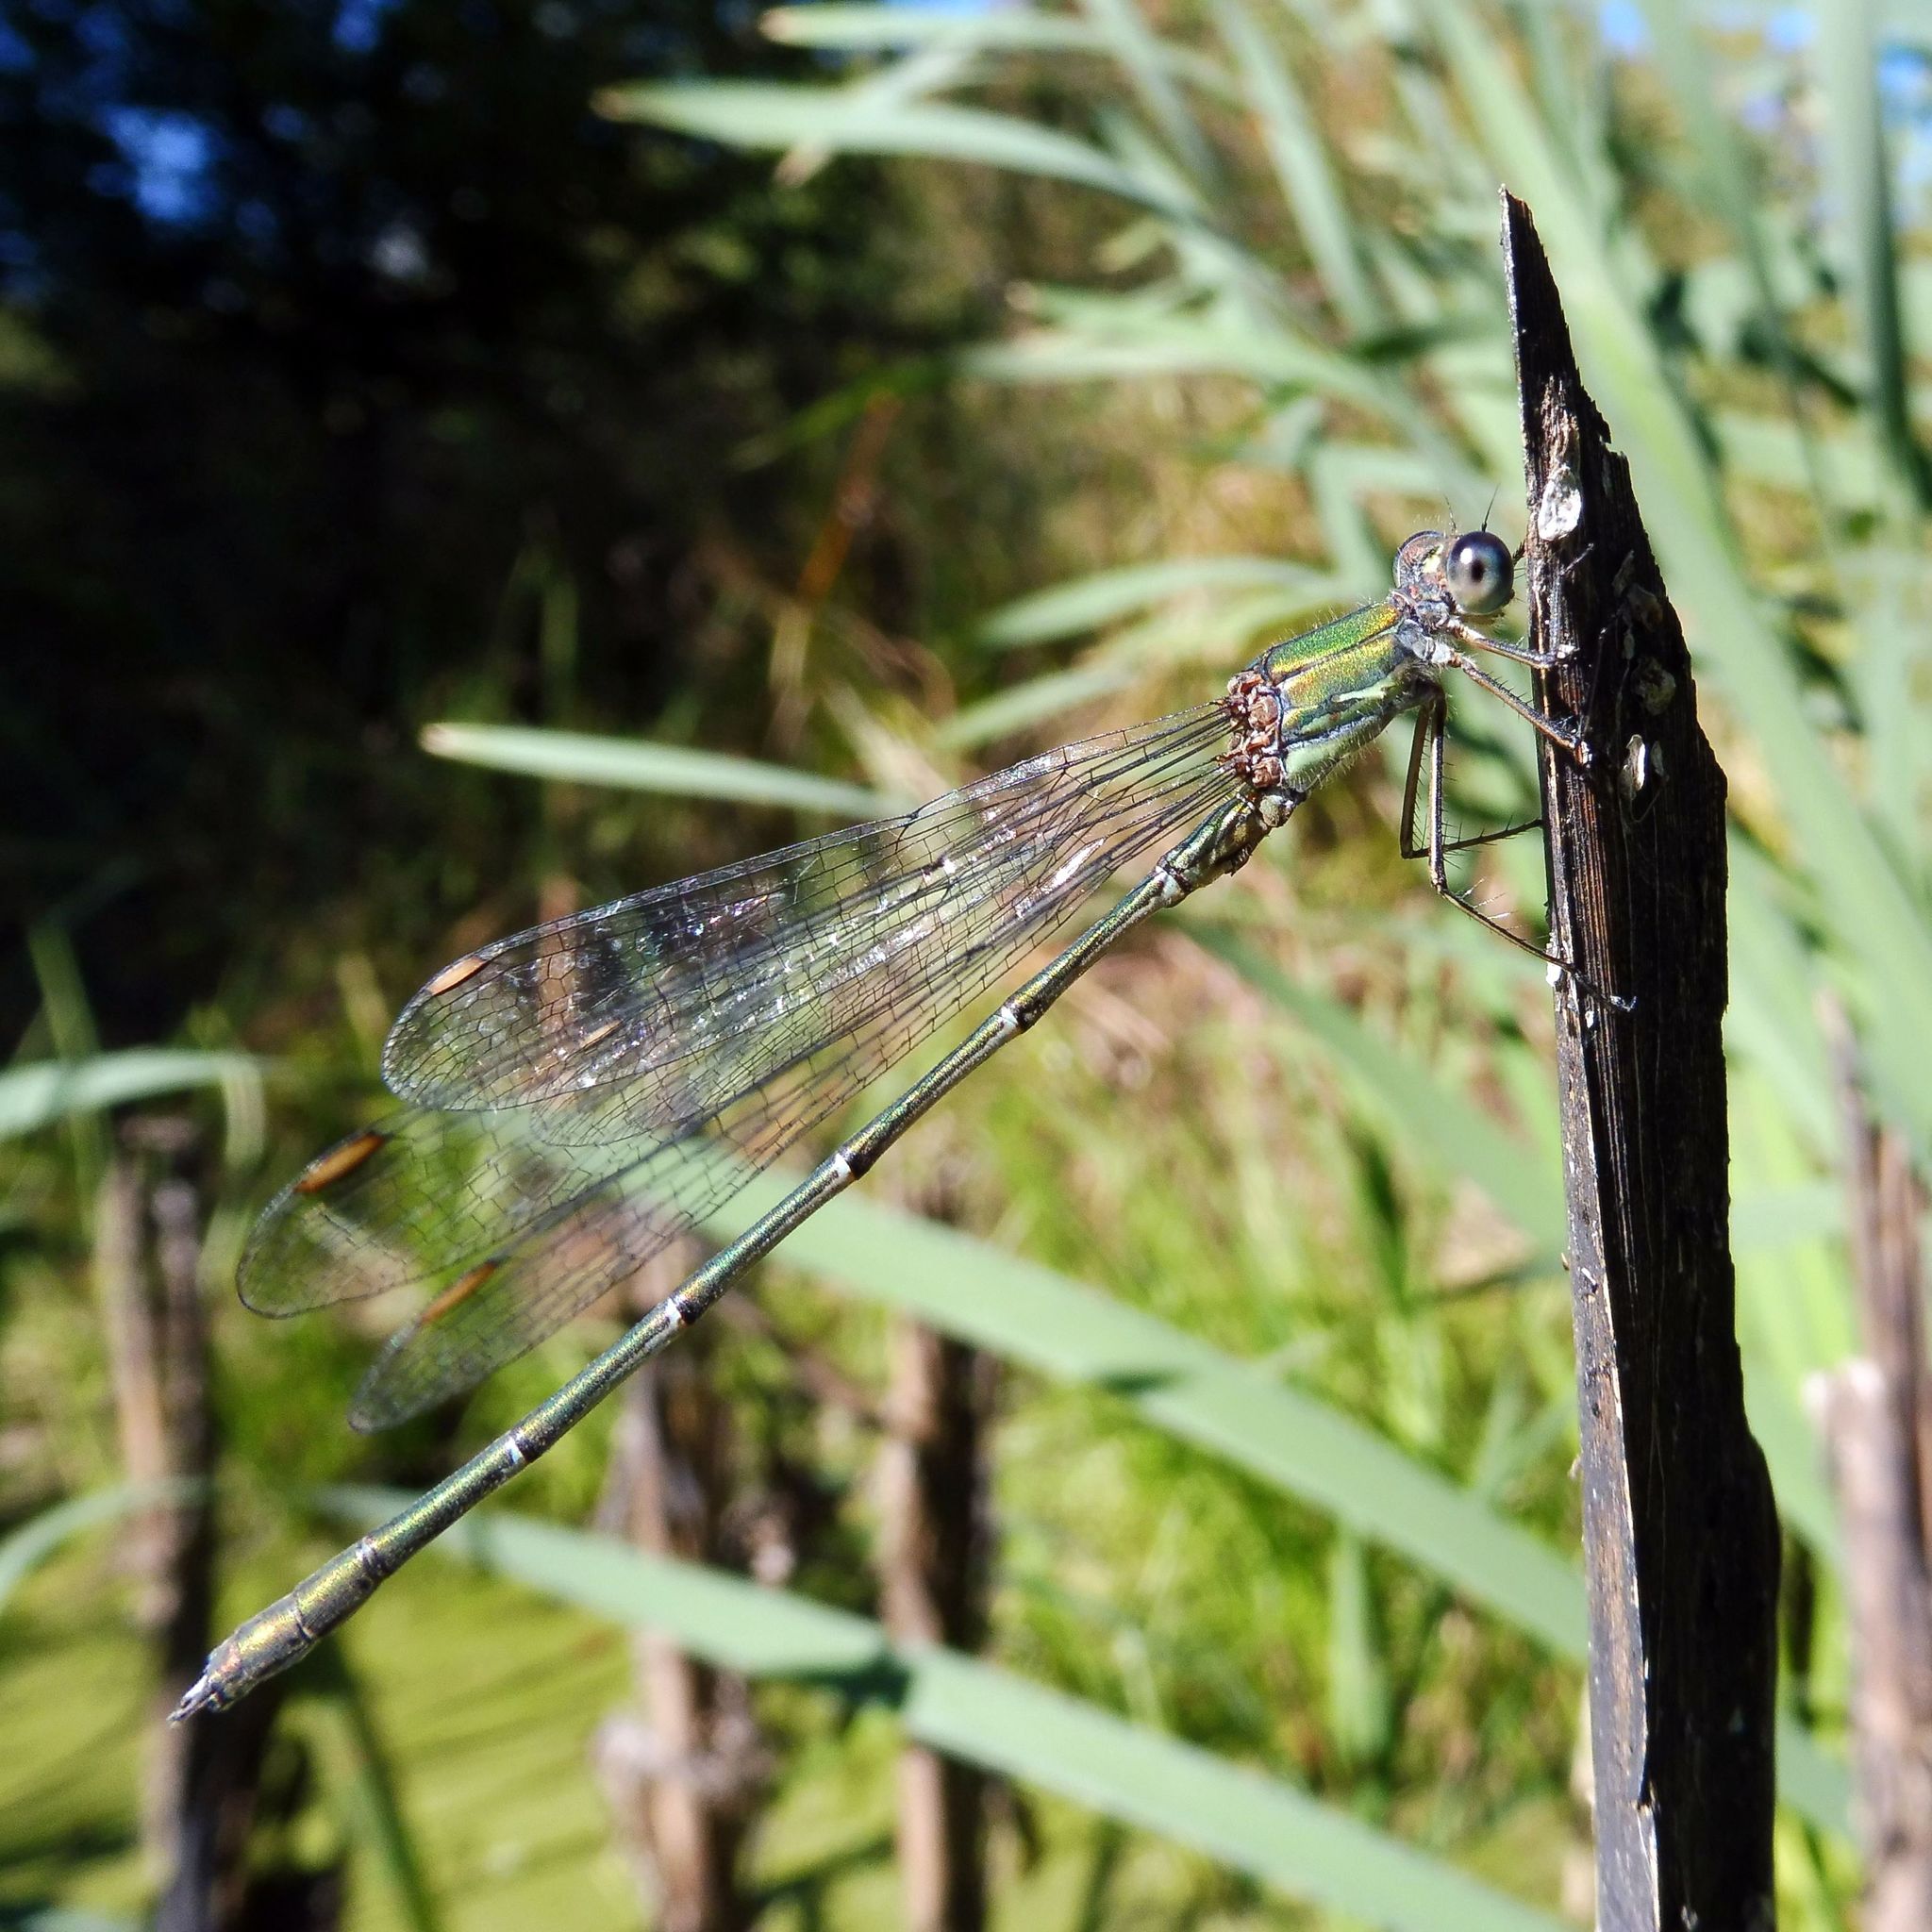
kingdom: Animalia
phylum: Arthropoda
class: Insecta
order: Odonata
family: Lestidae
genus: Chalcolestes
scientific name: Chalcolestes viridis
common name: Green emerald damselfly
